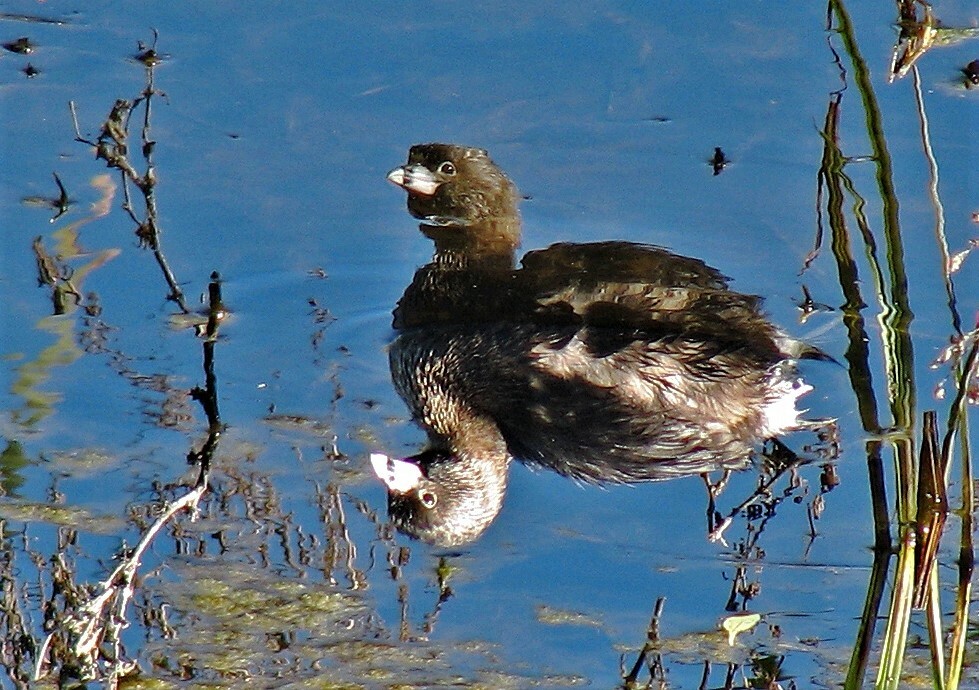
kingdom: Animalia
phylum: Chordata
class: Aves
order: Podicipediformes
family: Podicipedidae
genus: Podilymbus
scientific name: Podilymbus podiceps
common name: Pied-billed grebe
